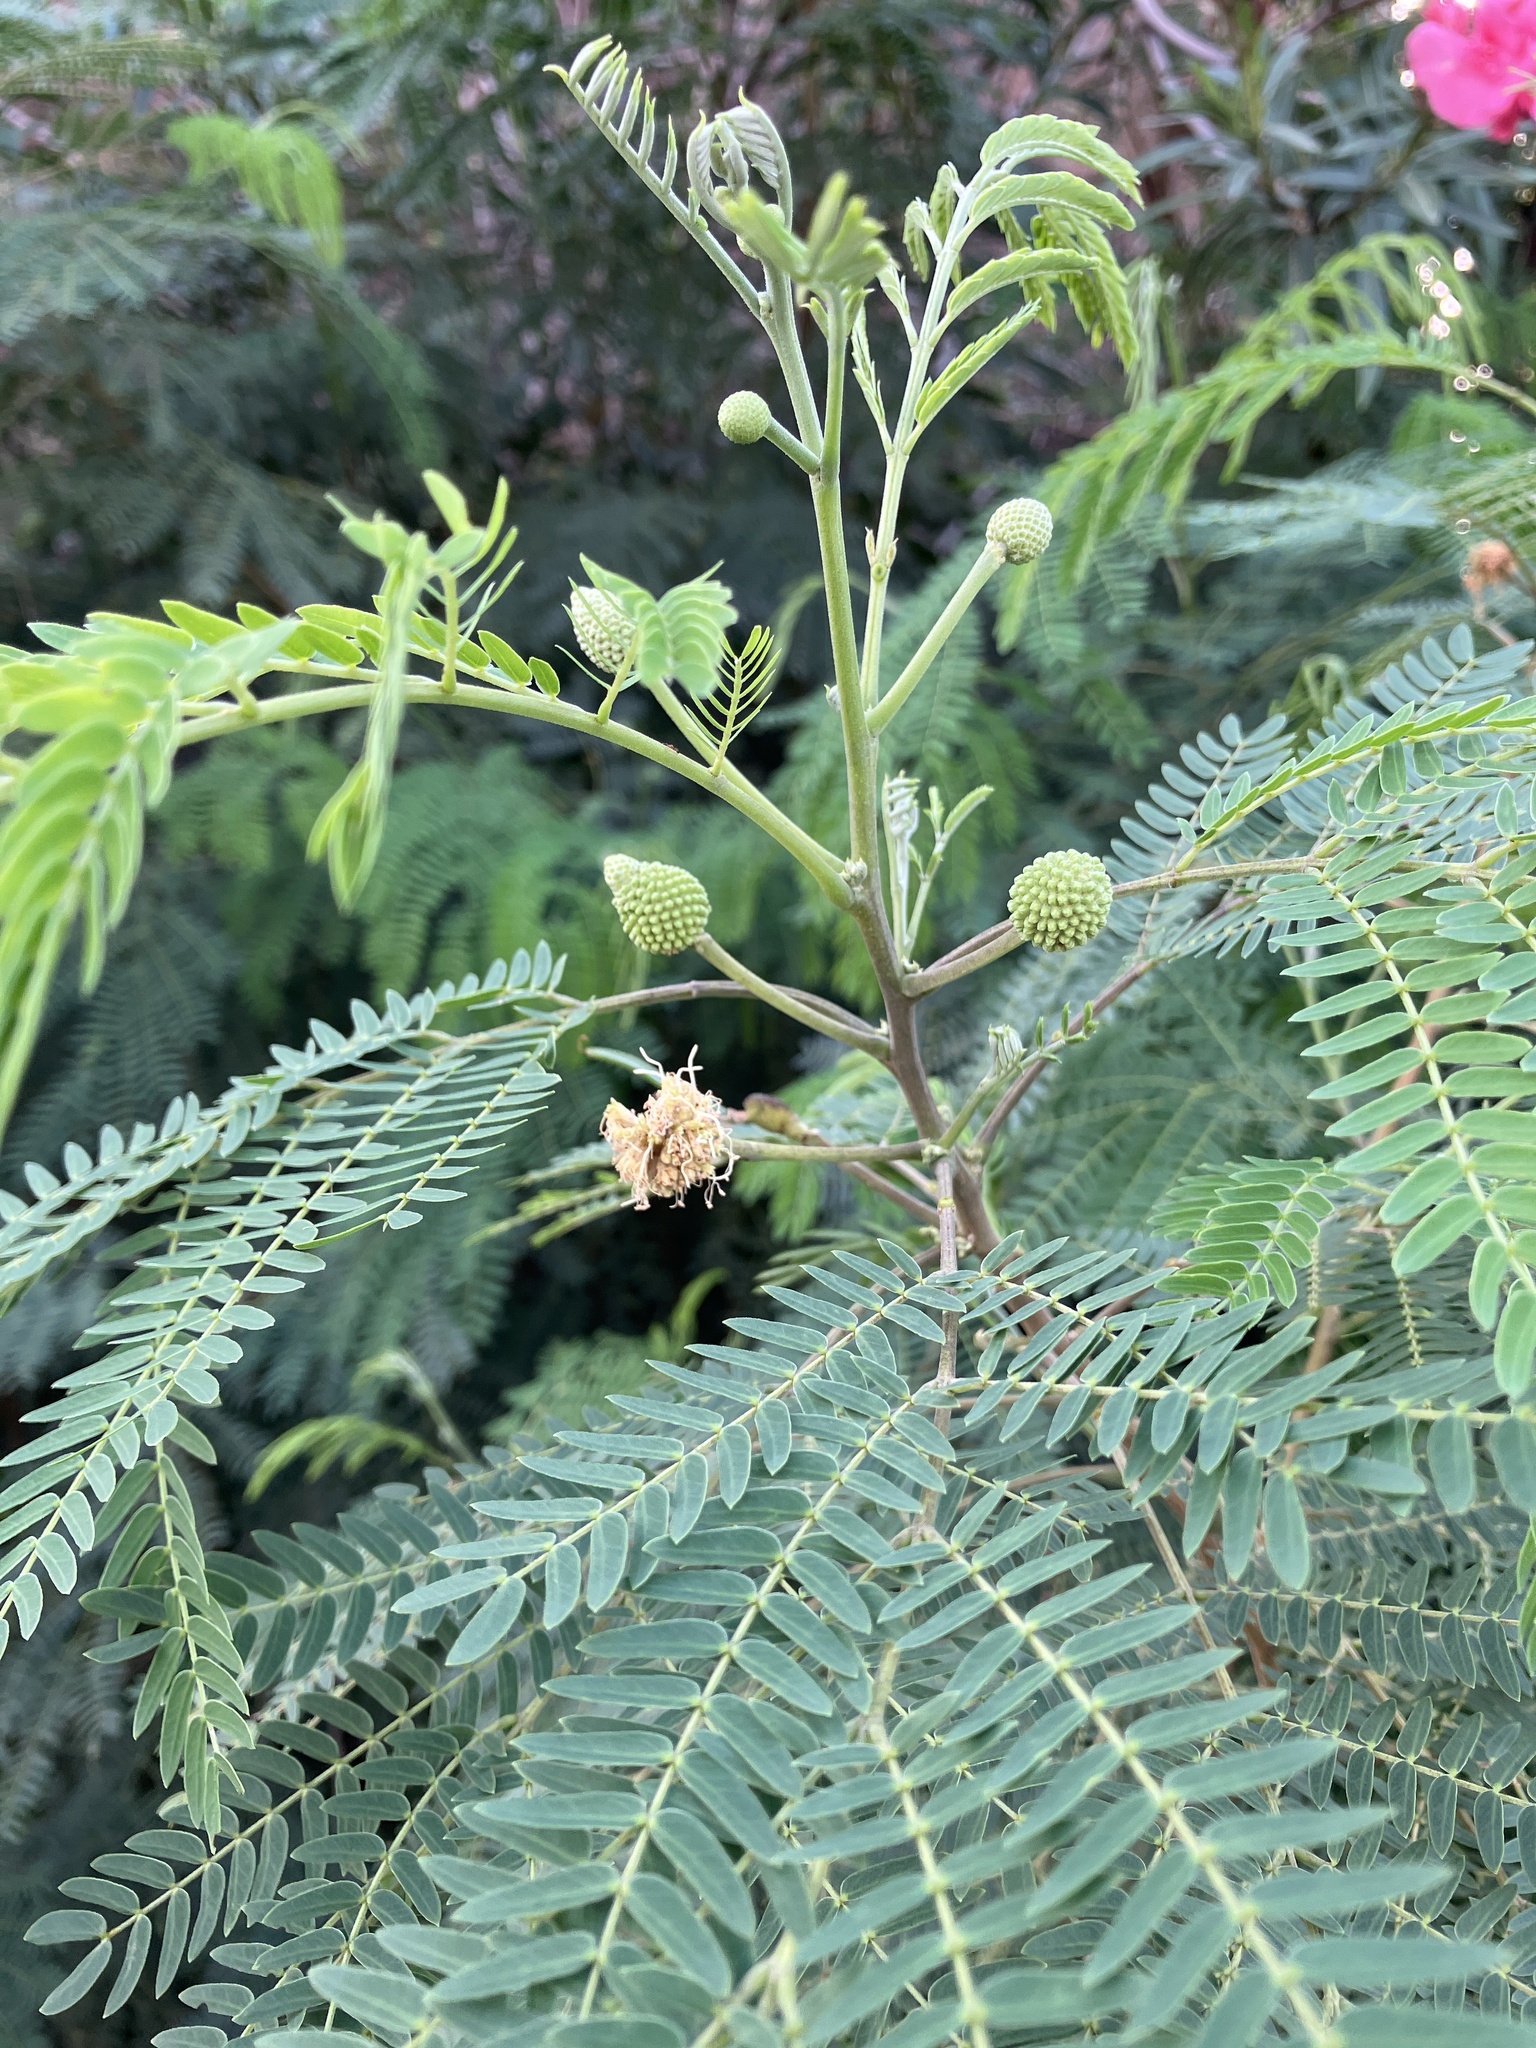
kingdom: Plantae
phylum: Tracheophyta
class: Magnoliopsida
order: Fabales
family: Fabaceae
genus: Leucaena
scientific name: Leucaena leucocephala
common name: White leadtree
